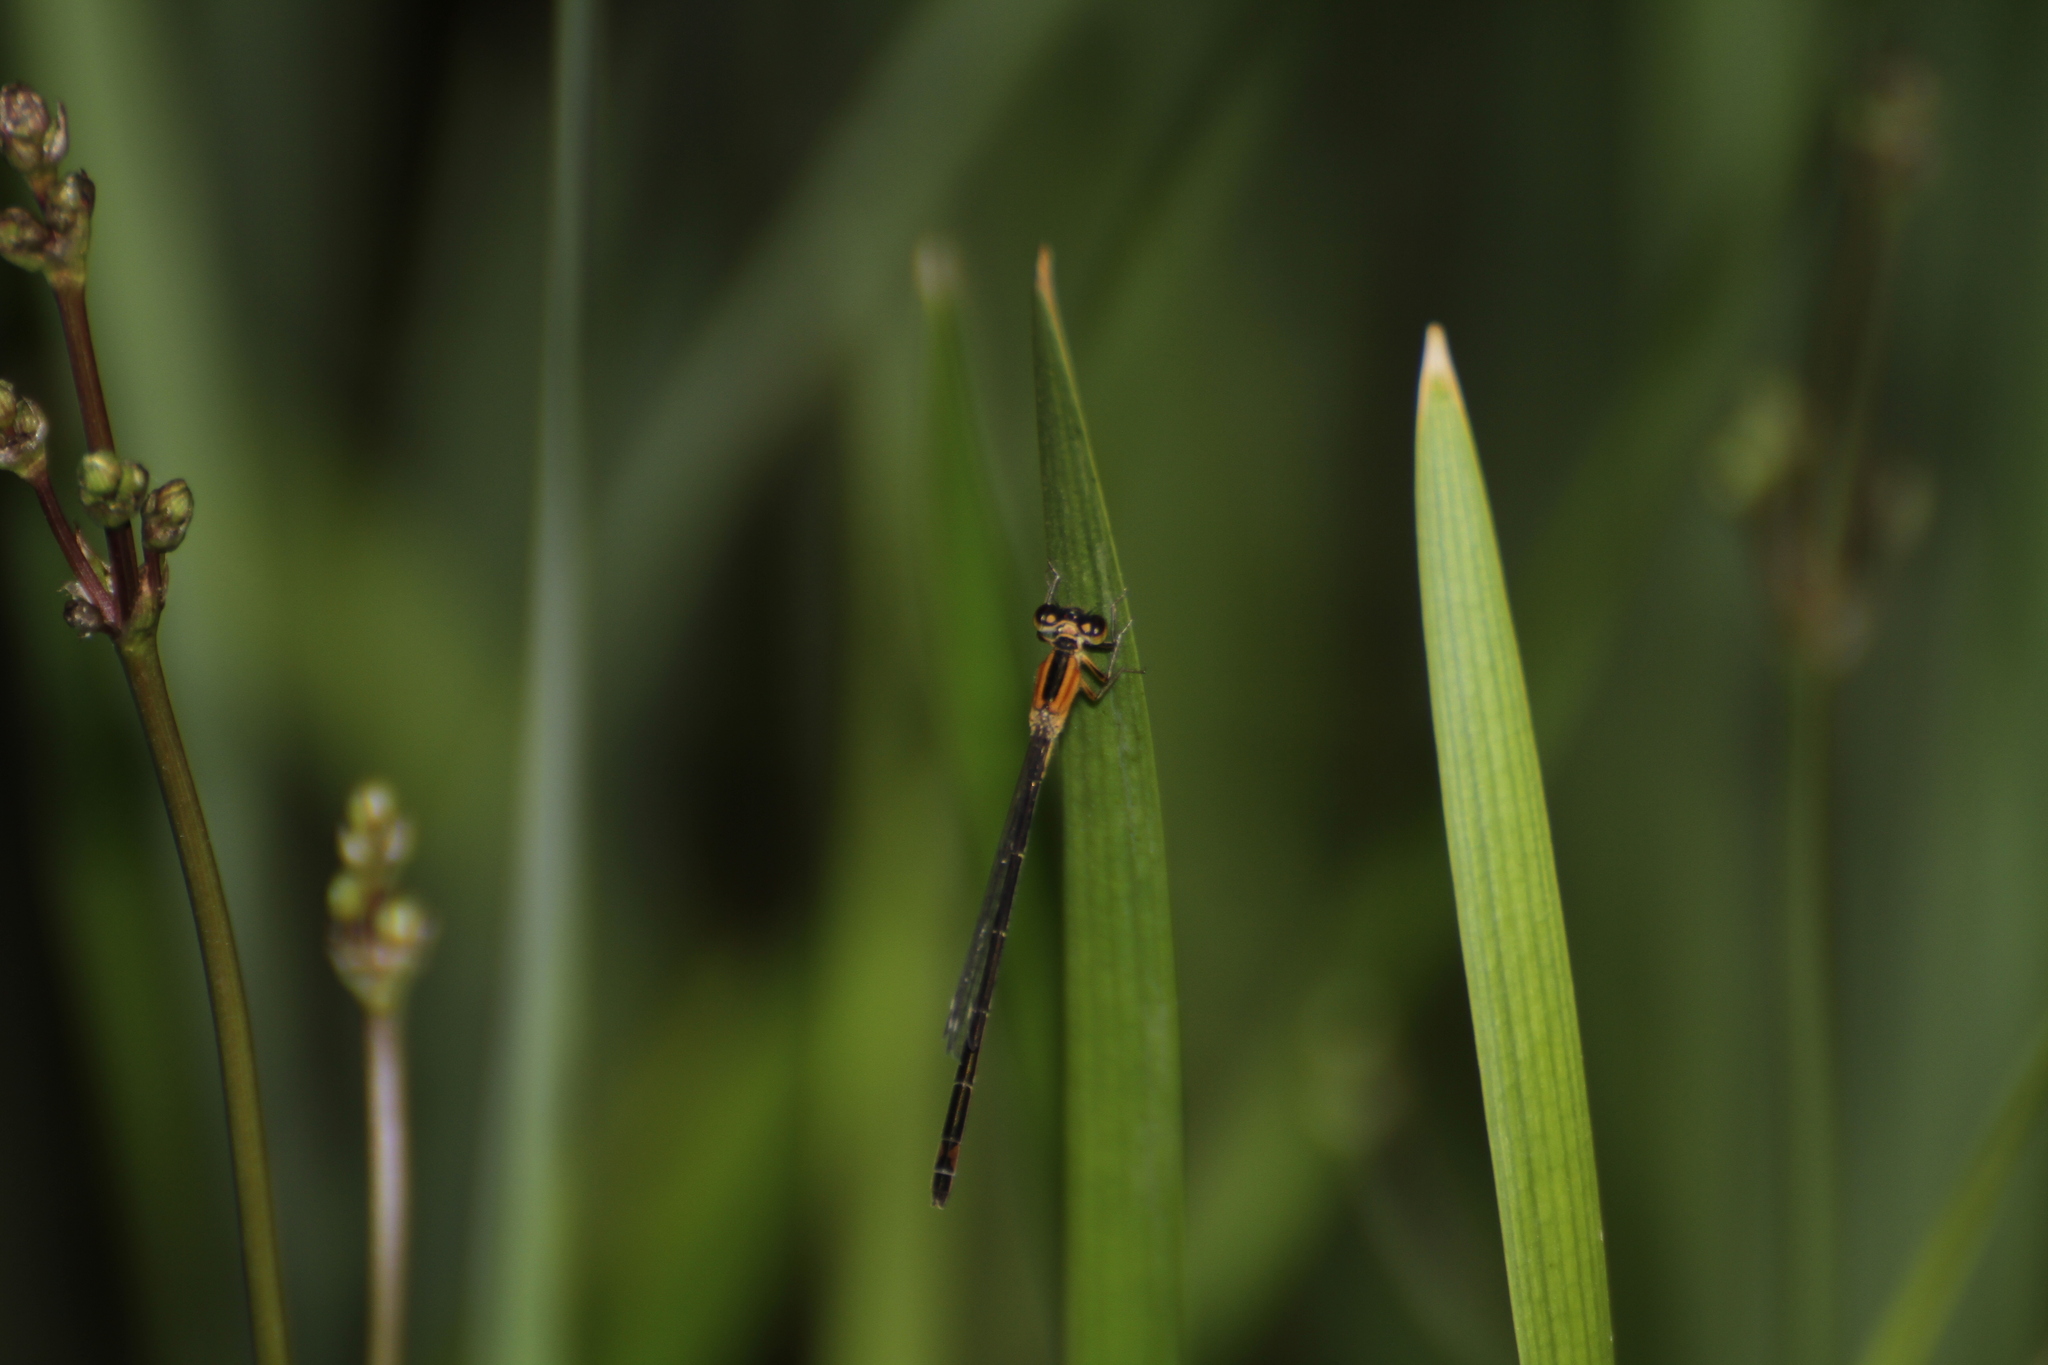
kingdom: Animalia
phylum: Arthropoda
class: Insecta
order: Odonata
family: Coenagrionidae
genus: Ischnura
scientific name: Ischnura elegans
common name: Blue-tailed damselfly
